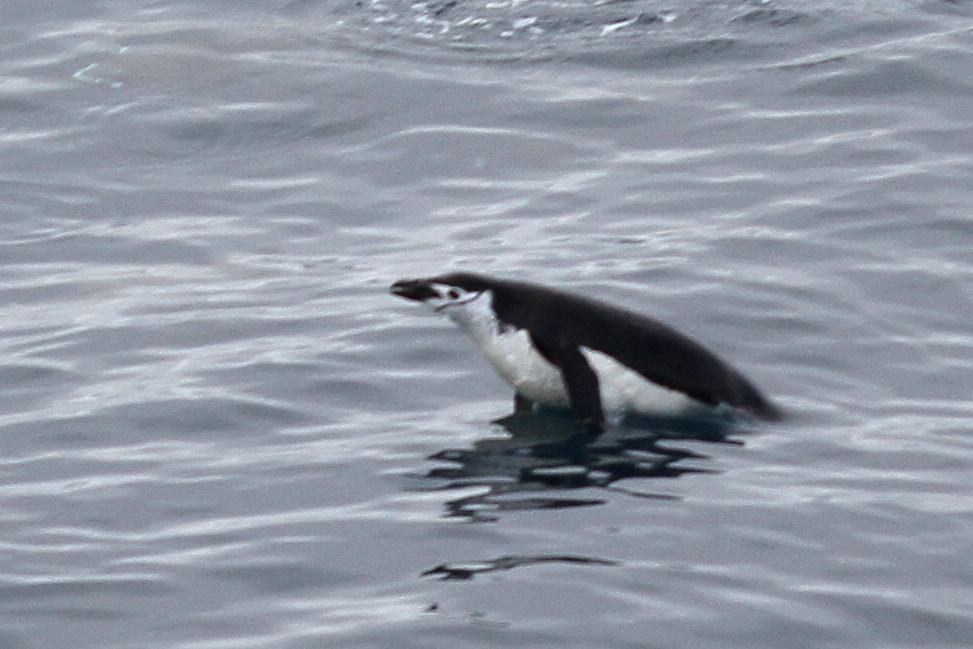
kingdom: Animalia
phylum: Chordata
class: Aves
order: Sphenisciformes
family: Spheniscidae
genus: Pygoscelis
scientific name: Pygoscelis antarcticus
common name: Chinstrap penguin
